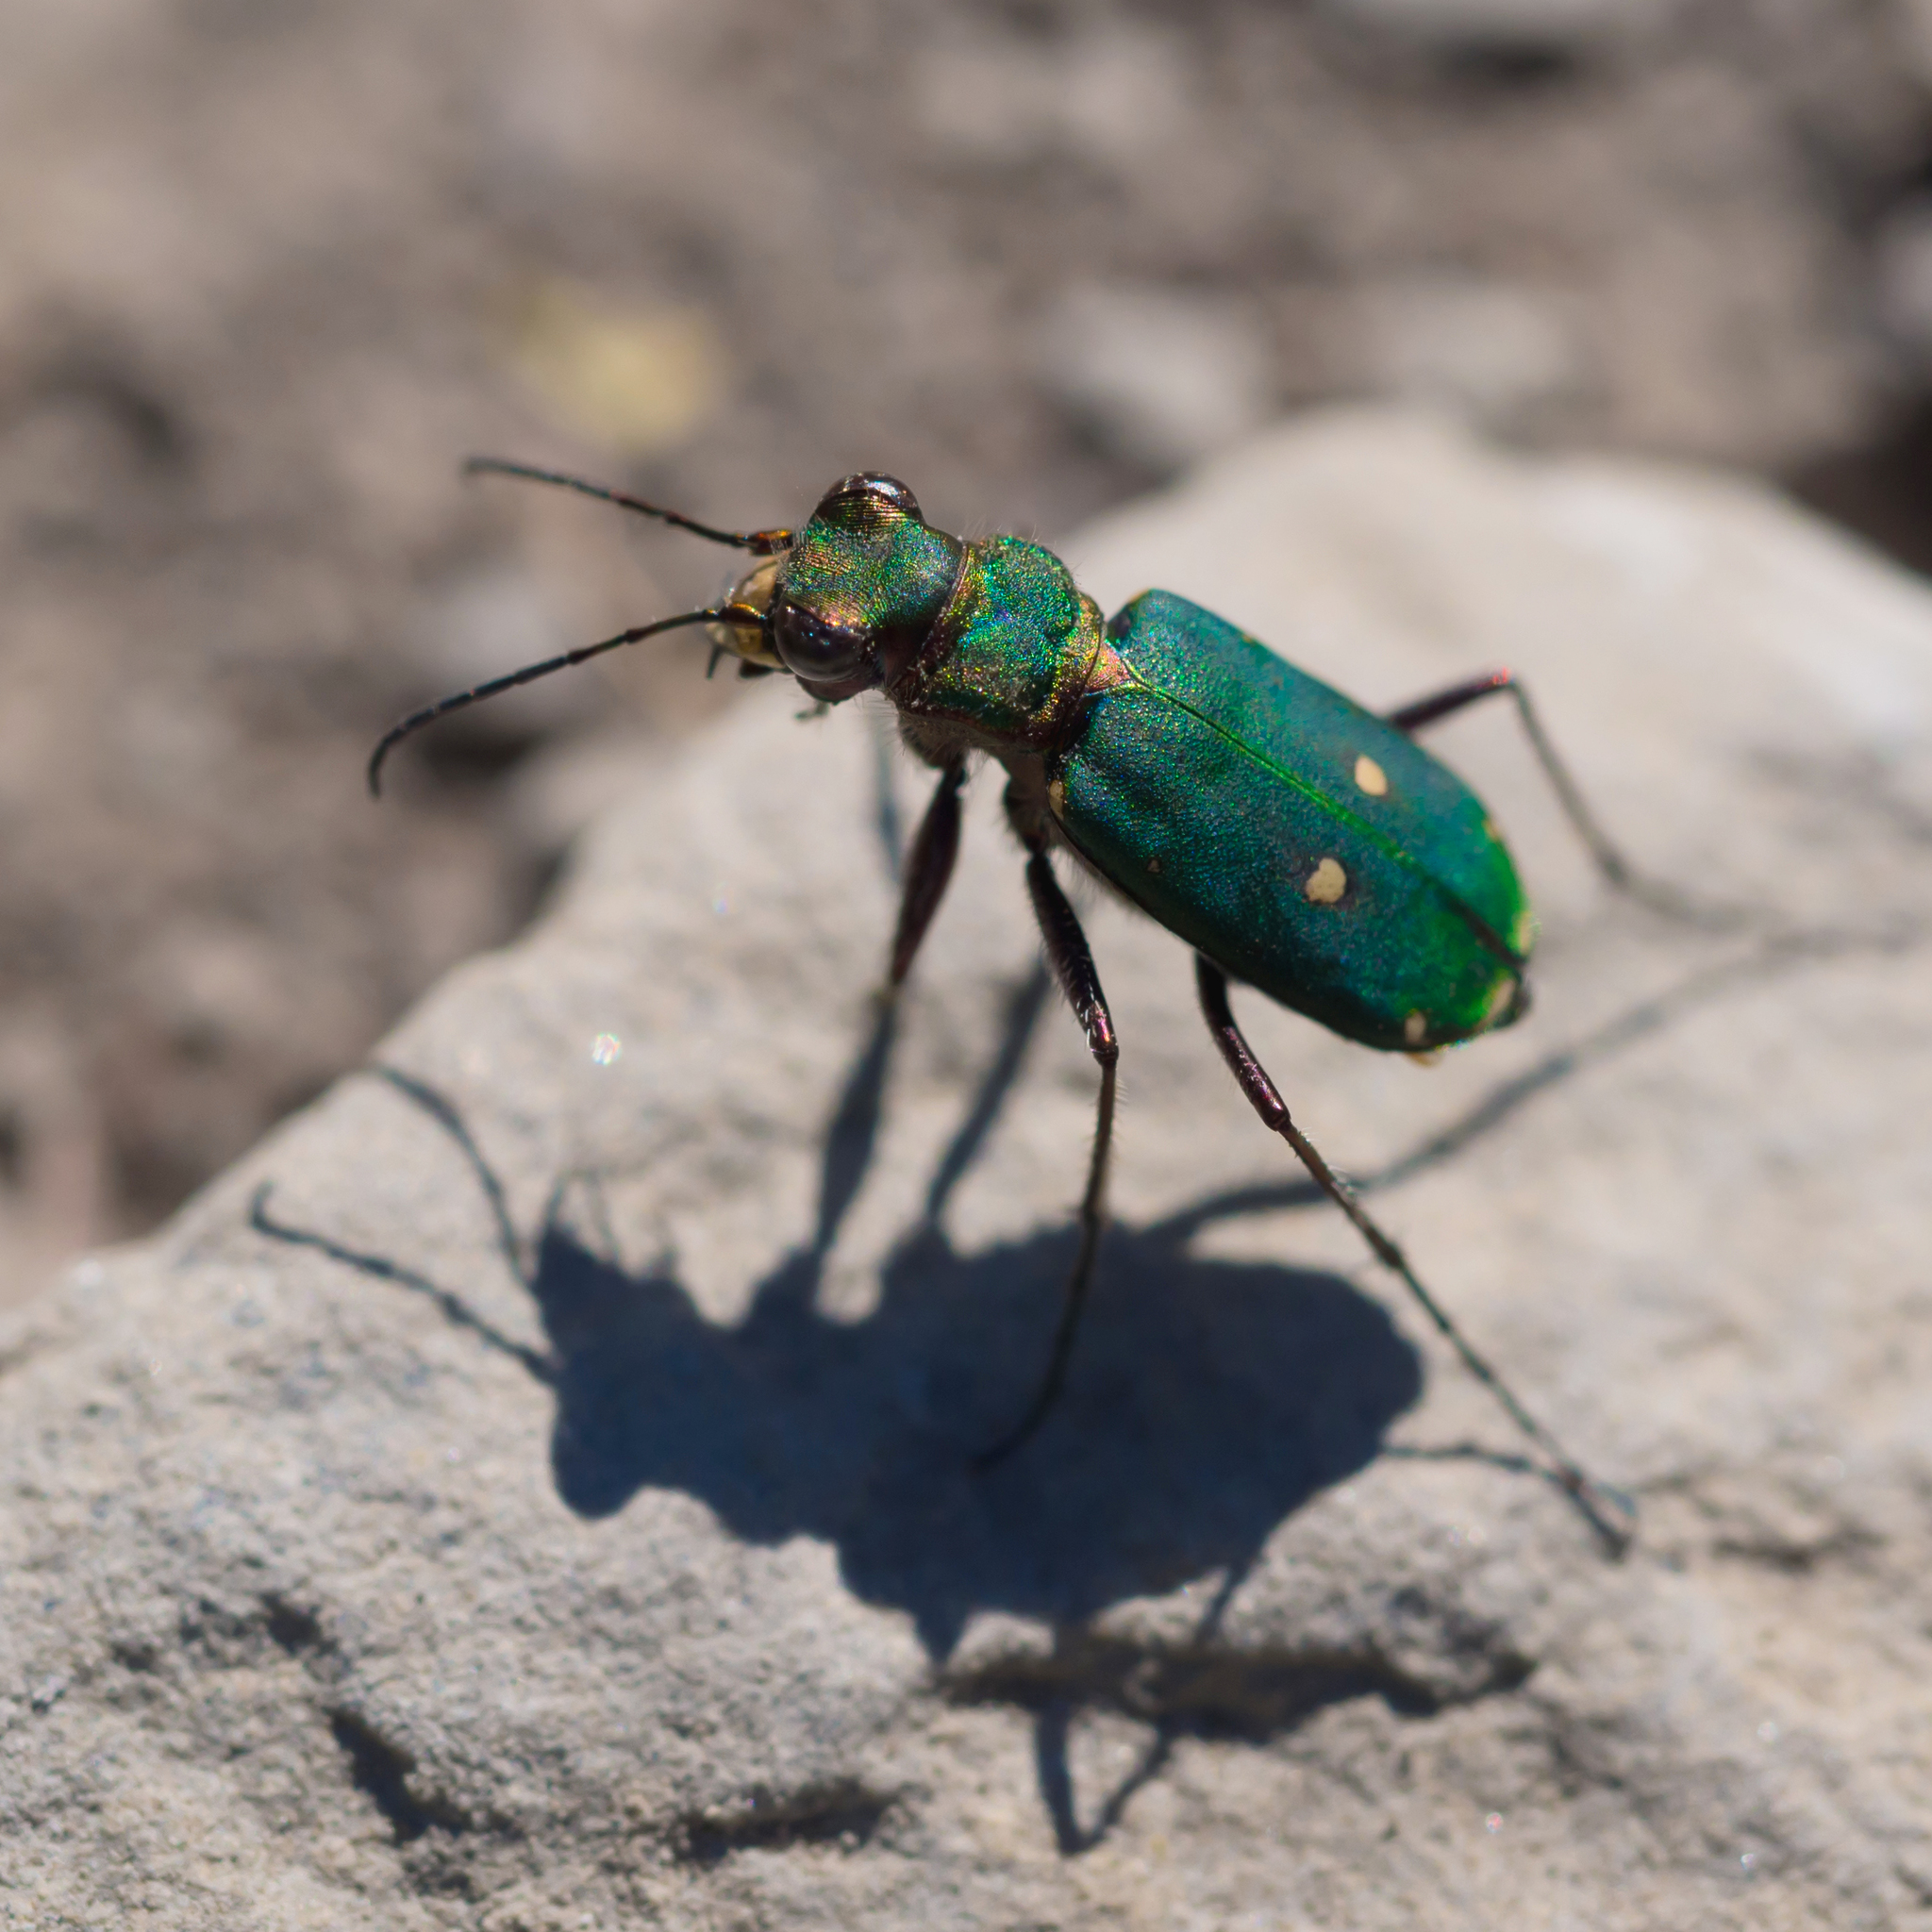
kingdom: Animalia
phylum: Arthropoda
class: Insecta
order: Coleoptera
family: Carabidae
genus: Cicindela
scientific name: Cicindela campestris
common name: Common tiger beetle
